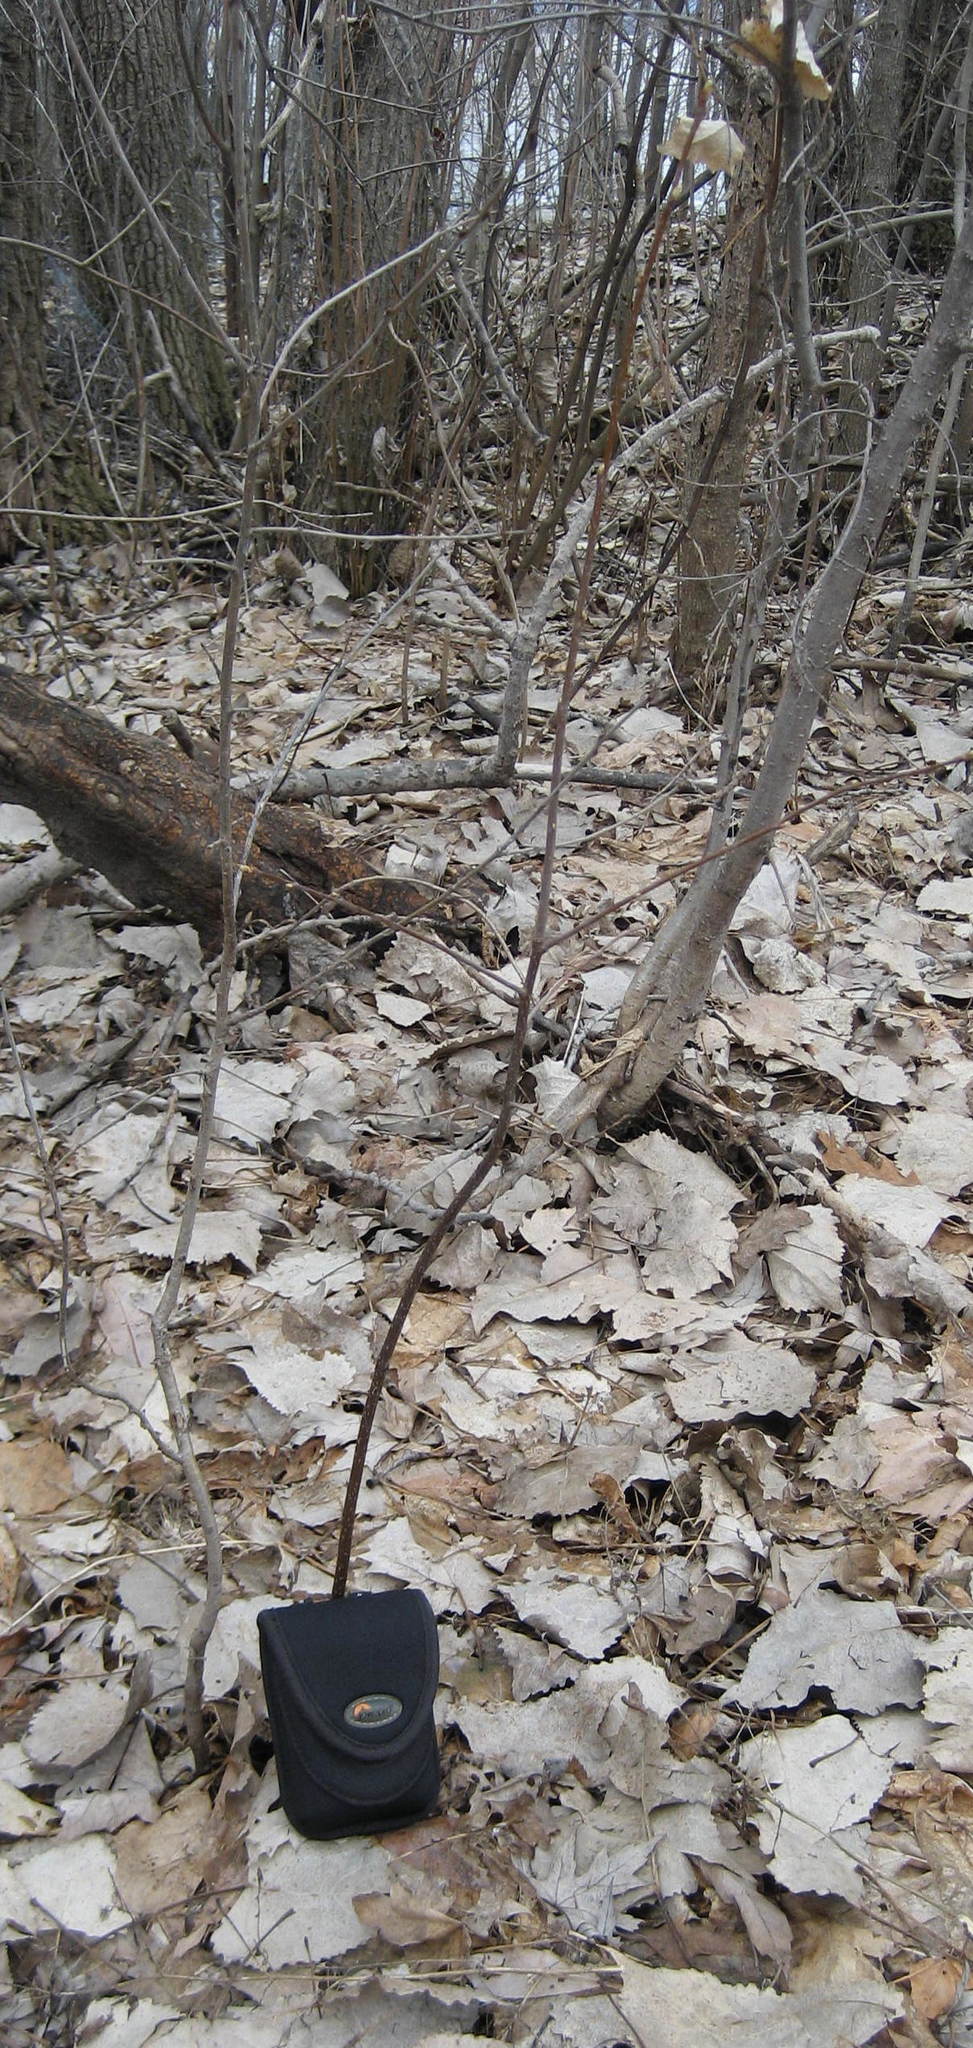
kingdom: Plantae
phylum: Tracheophyta
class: Magnoliopsida
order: Rosales
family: Rosaceae
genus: Prunus
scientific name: Prunus virginiana
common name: Chokecherry
